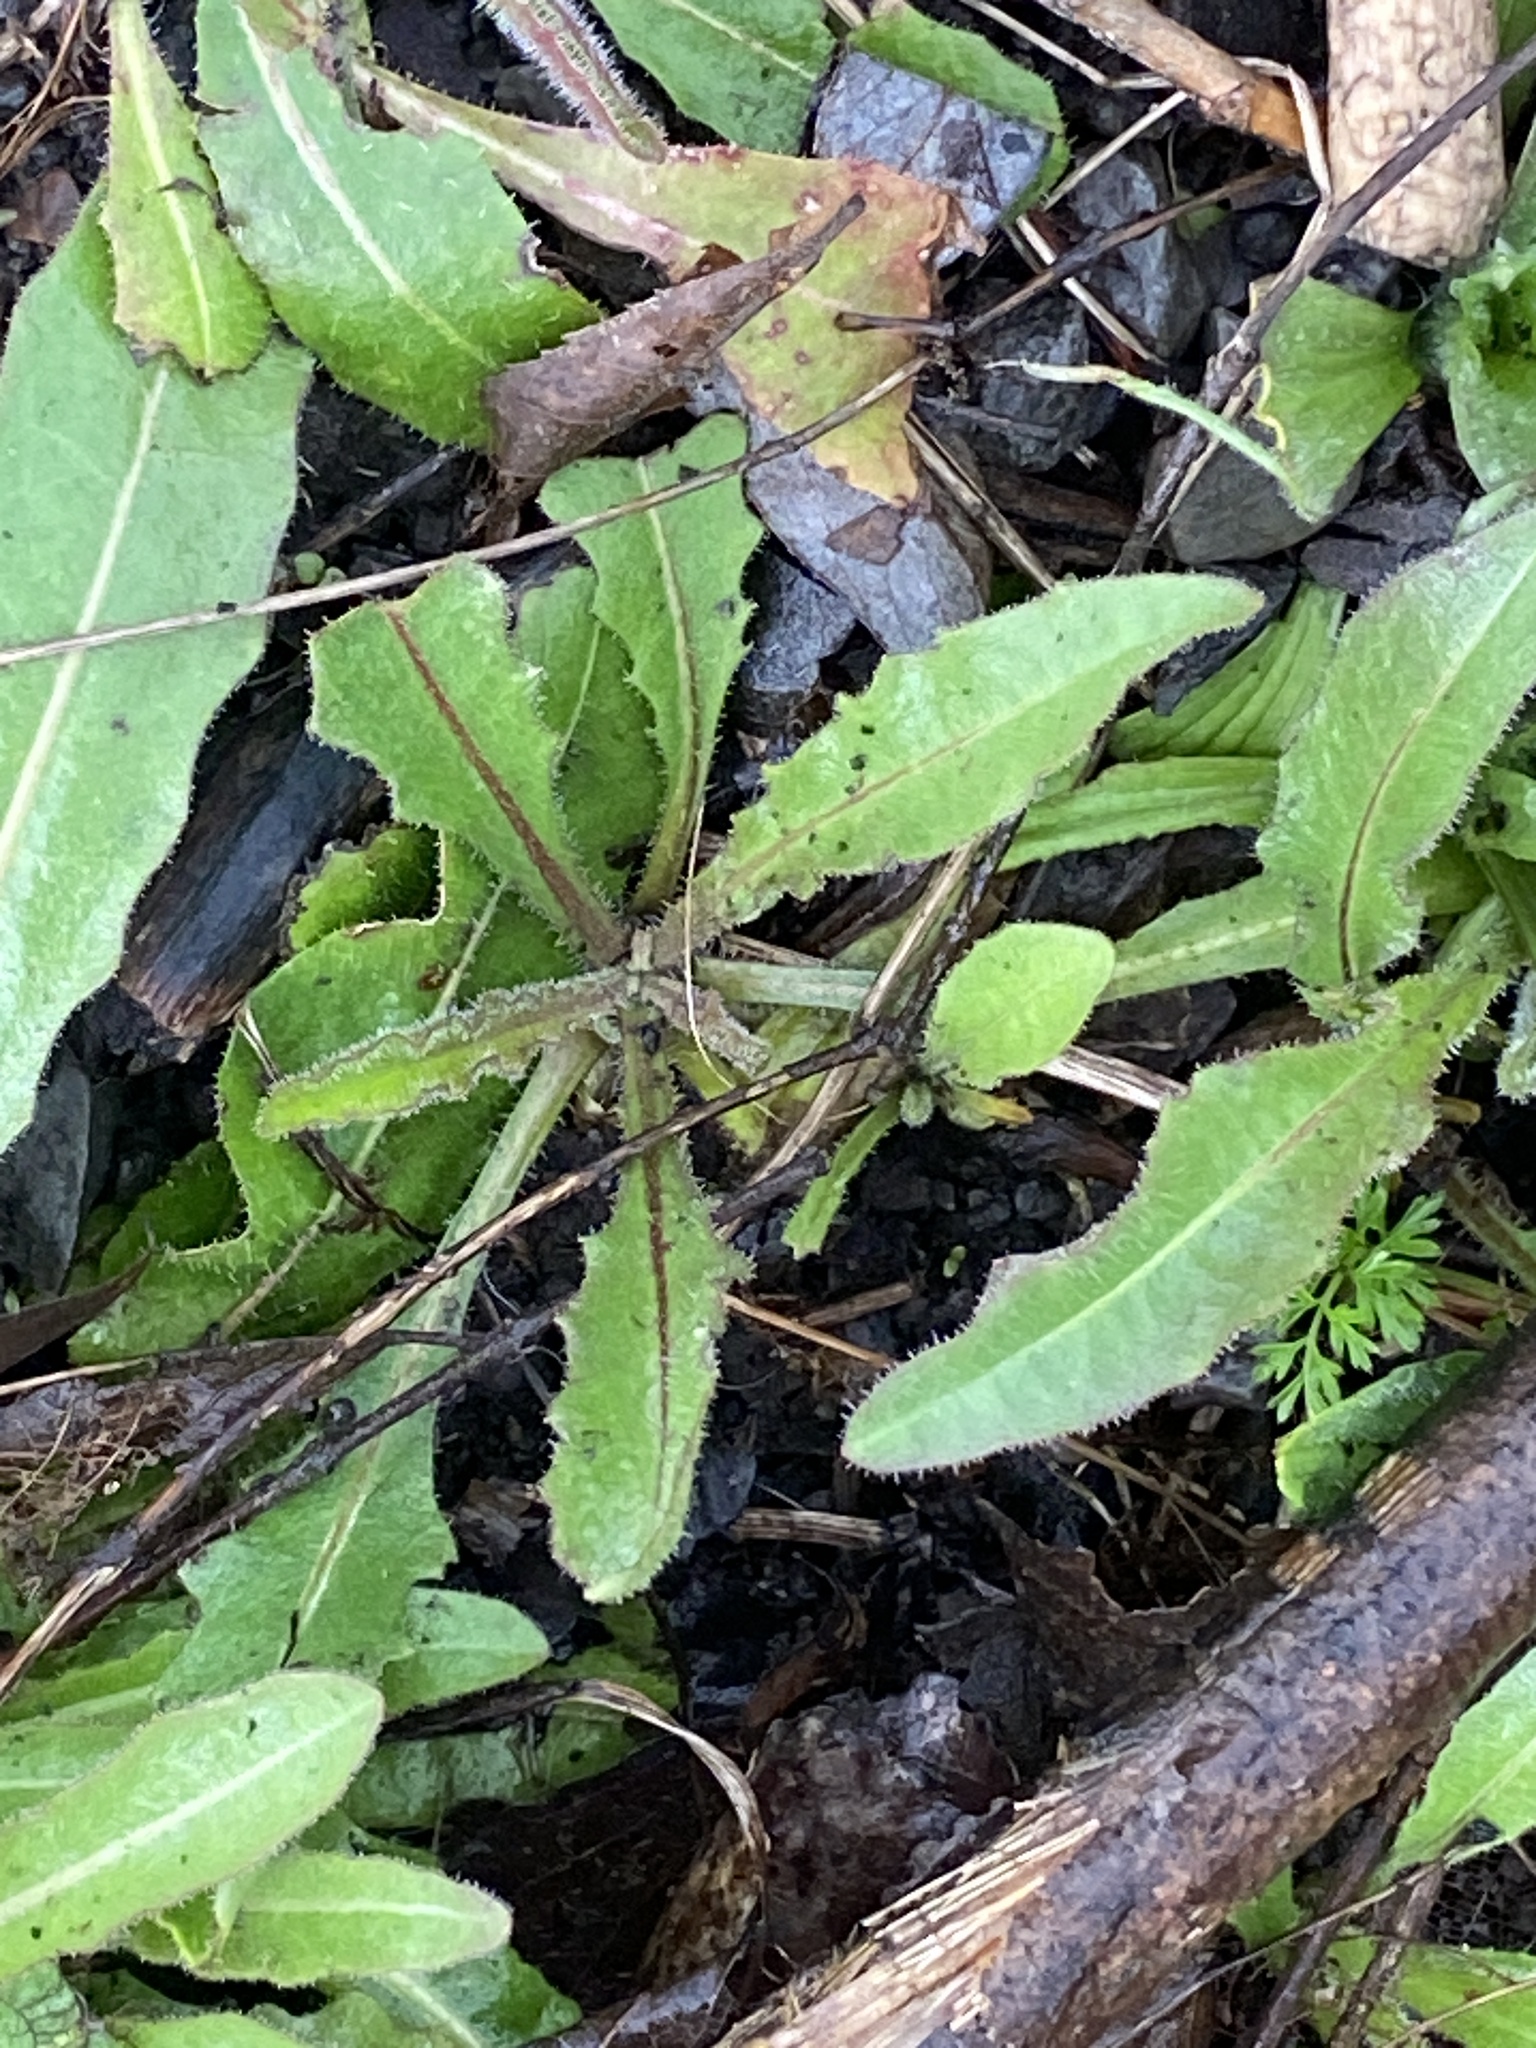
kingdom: Plantae
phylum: Tracheophyta
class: Magnoliopsida
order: Asterales
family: Asteraceae
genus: Picris
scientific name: Picris hieracioides
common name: Hawkweed oxtongue
